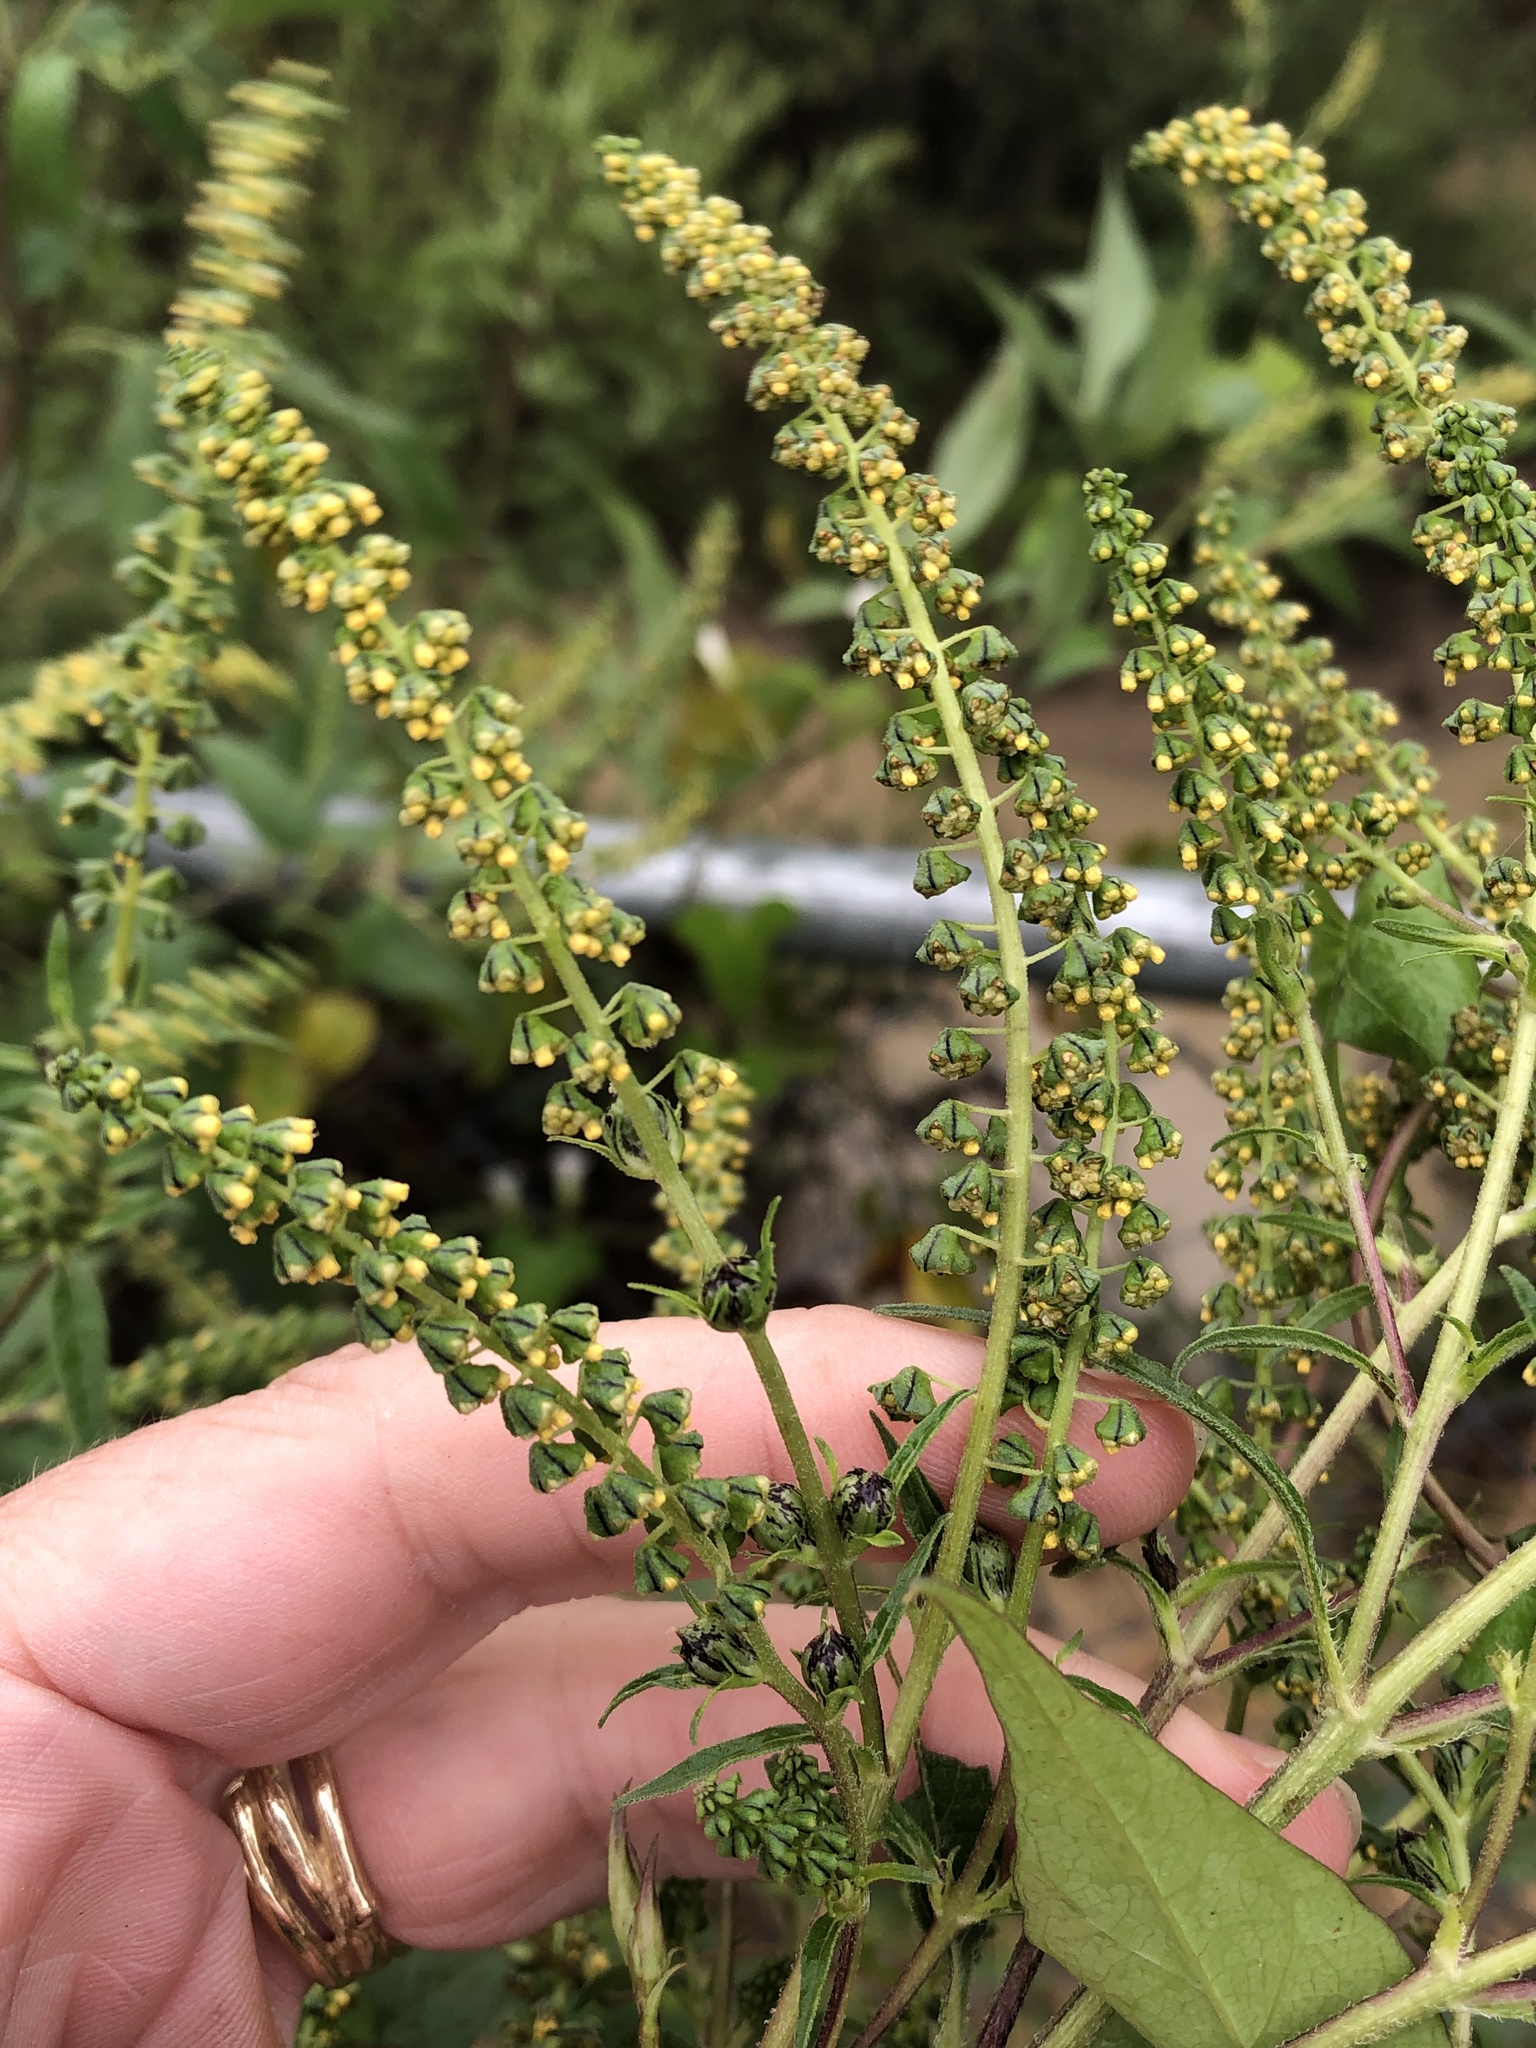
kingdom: Plantae
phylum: Tracheophyta
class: Magnoliopsida
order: Asterales
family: Asteraceae
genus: Ambrosia
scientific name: Ambrosia trifida
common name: Giant ragweed
